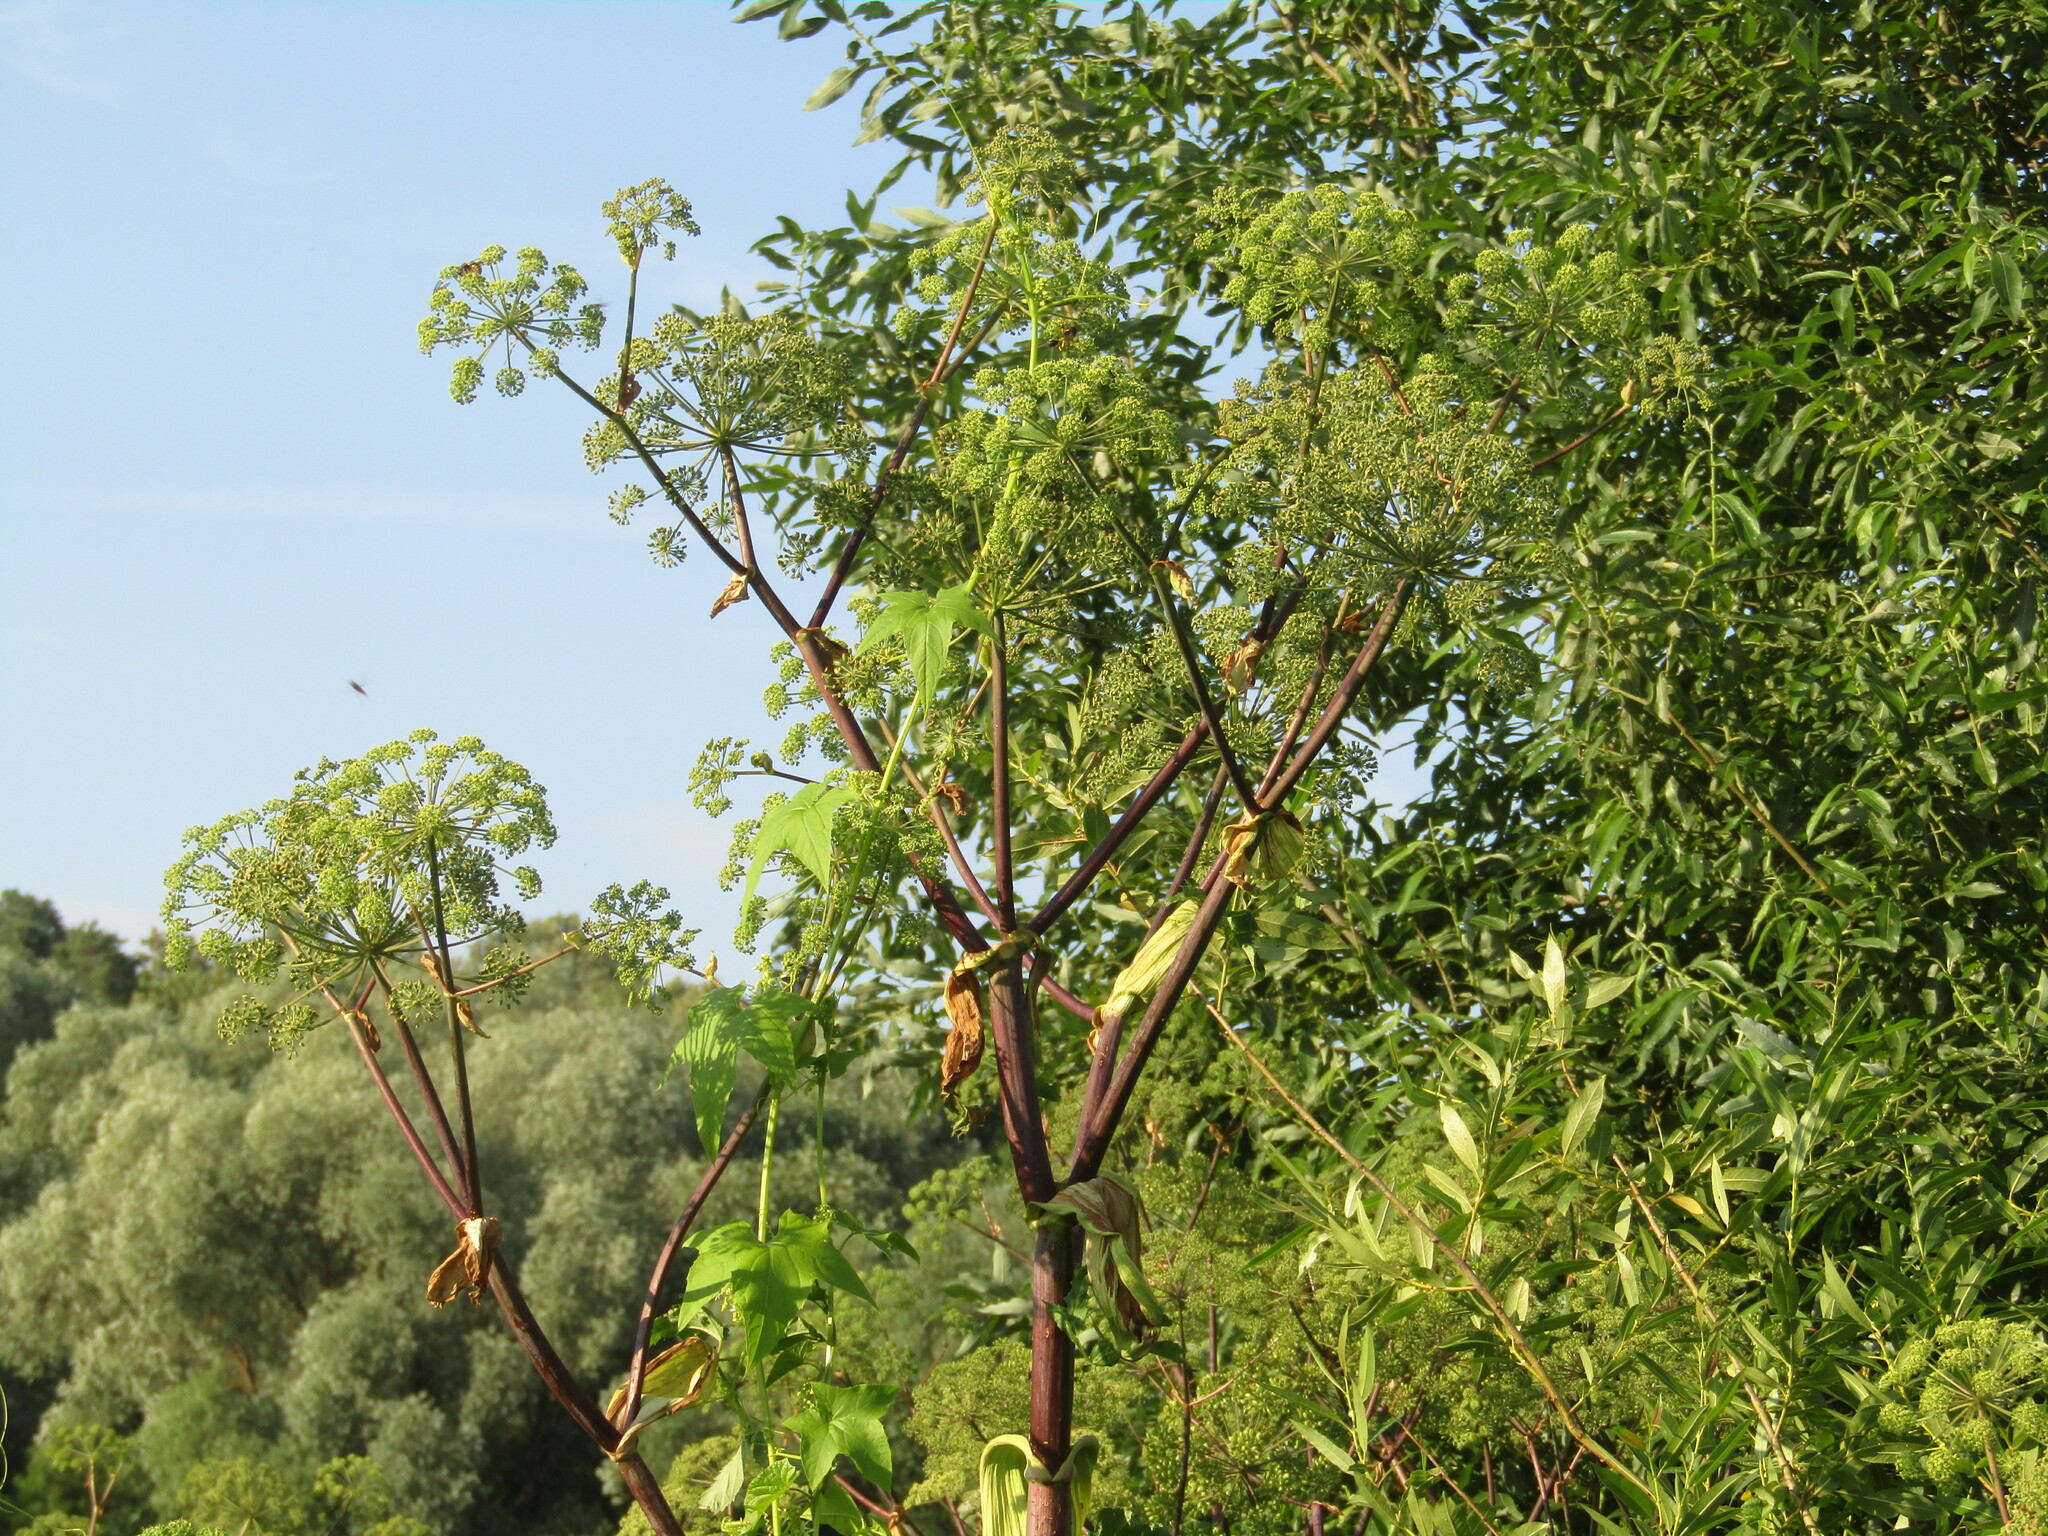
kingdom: Plantae
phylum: Tracheophyta
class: Magnoliopsida
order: Apiales
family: Apiaceae
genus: Angelica
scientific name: Angelica archangelica
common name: Garden angelica
